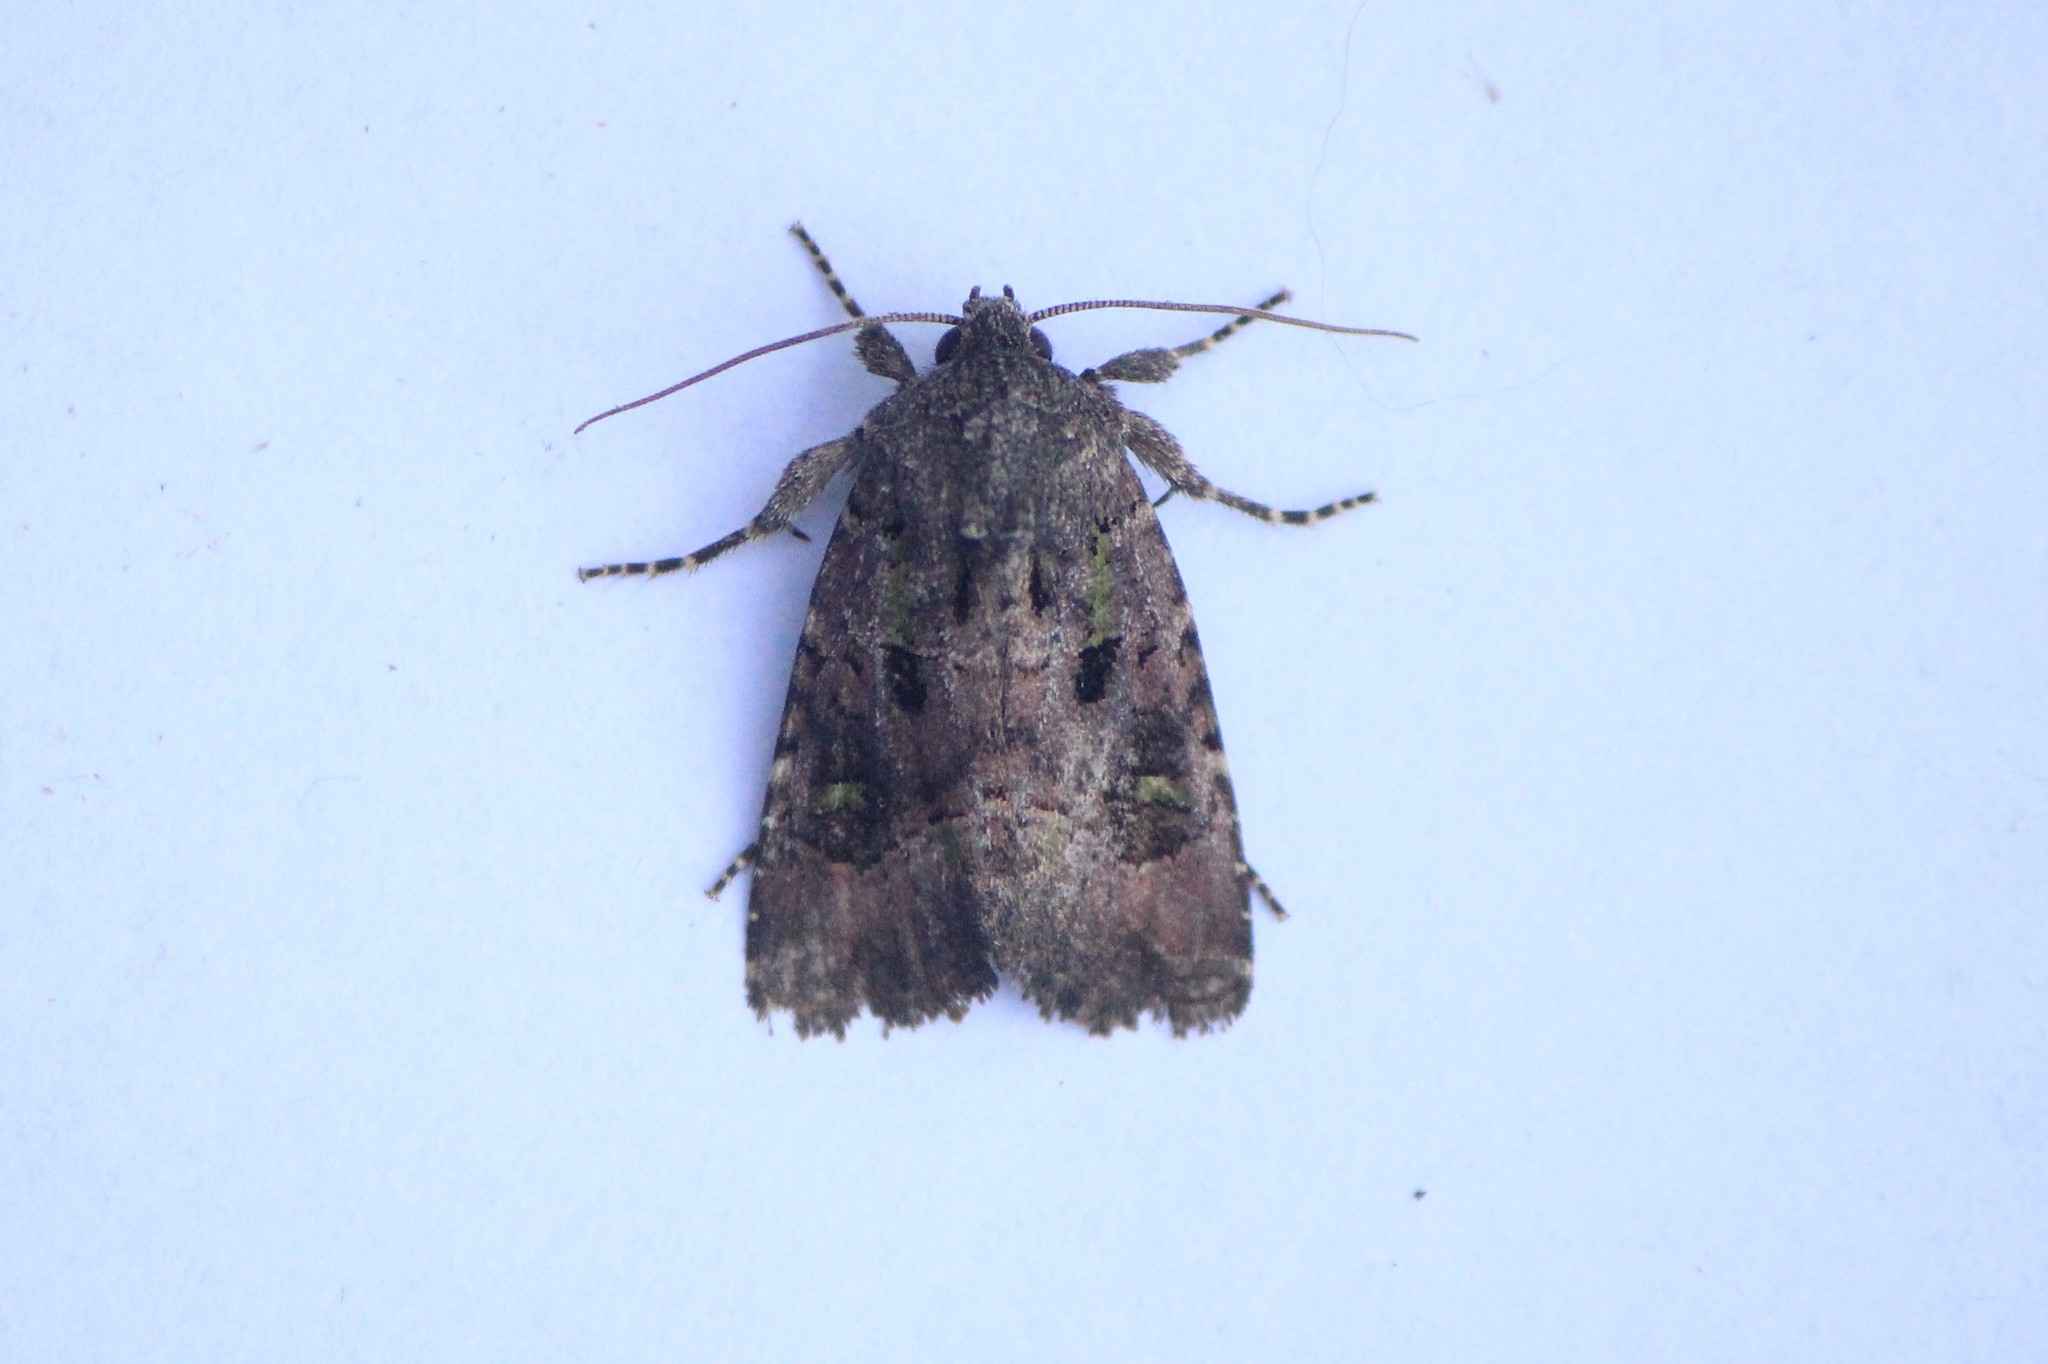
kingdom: Animalia
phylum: Arthropoda
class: Insecta
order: Lepidoptera
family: Noctuidae
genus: Lacinipolia
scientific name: Lacinipolia renigera
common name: Kidney-spotted minor
